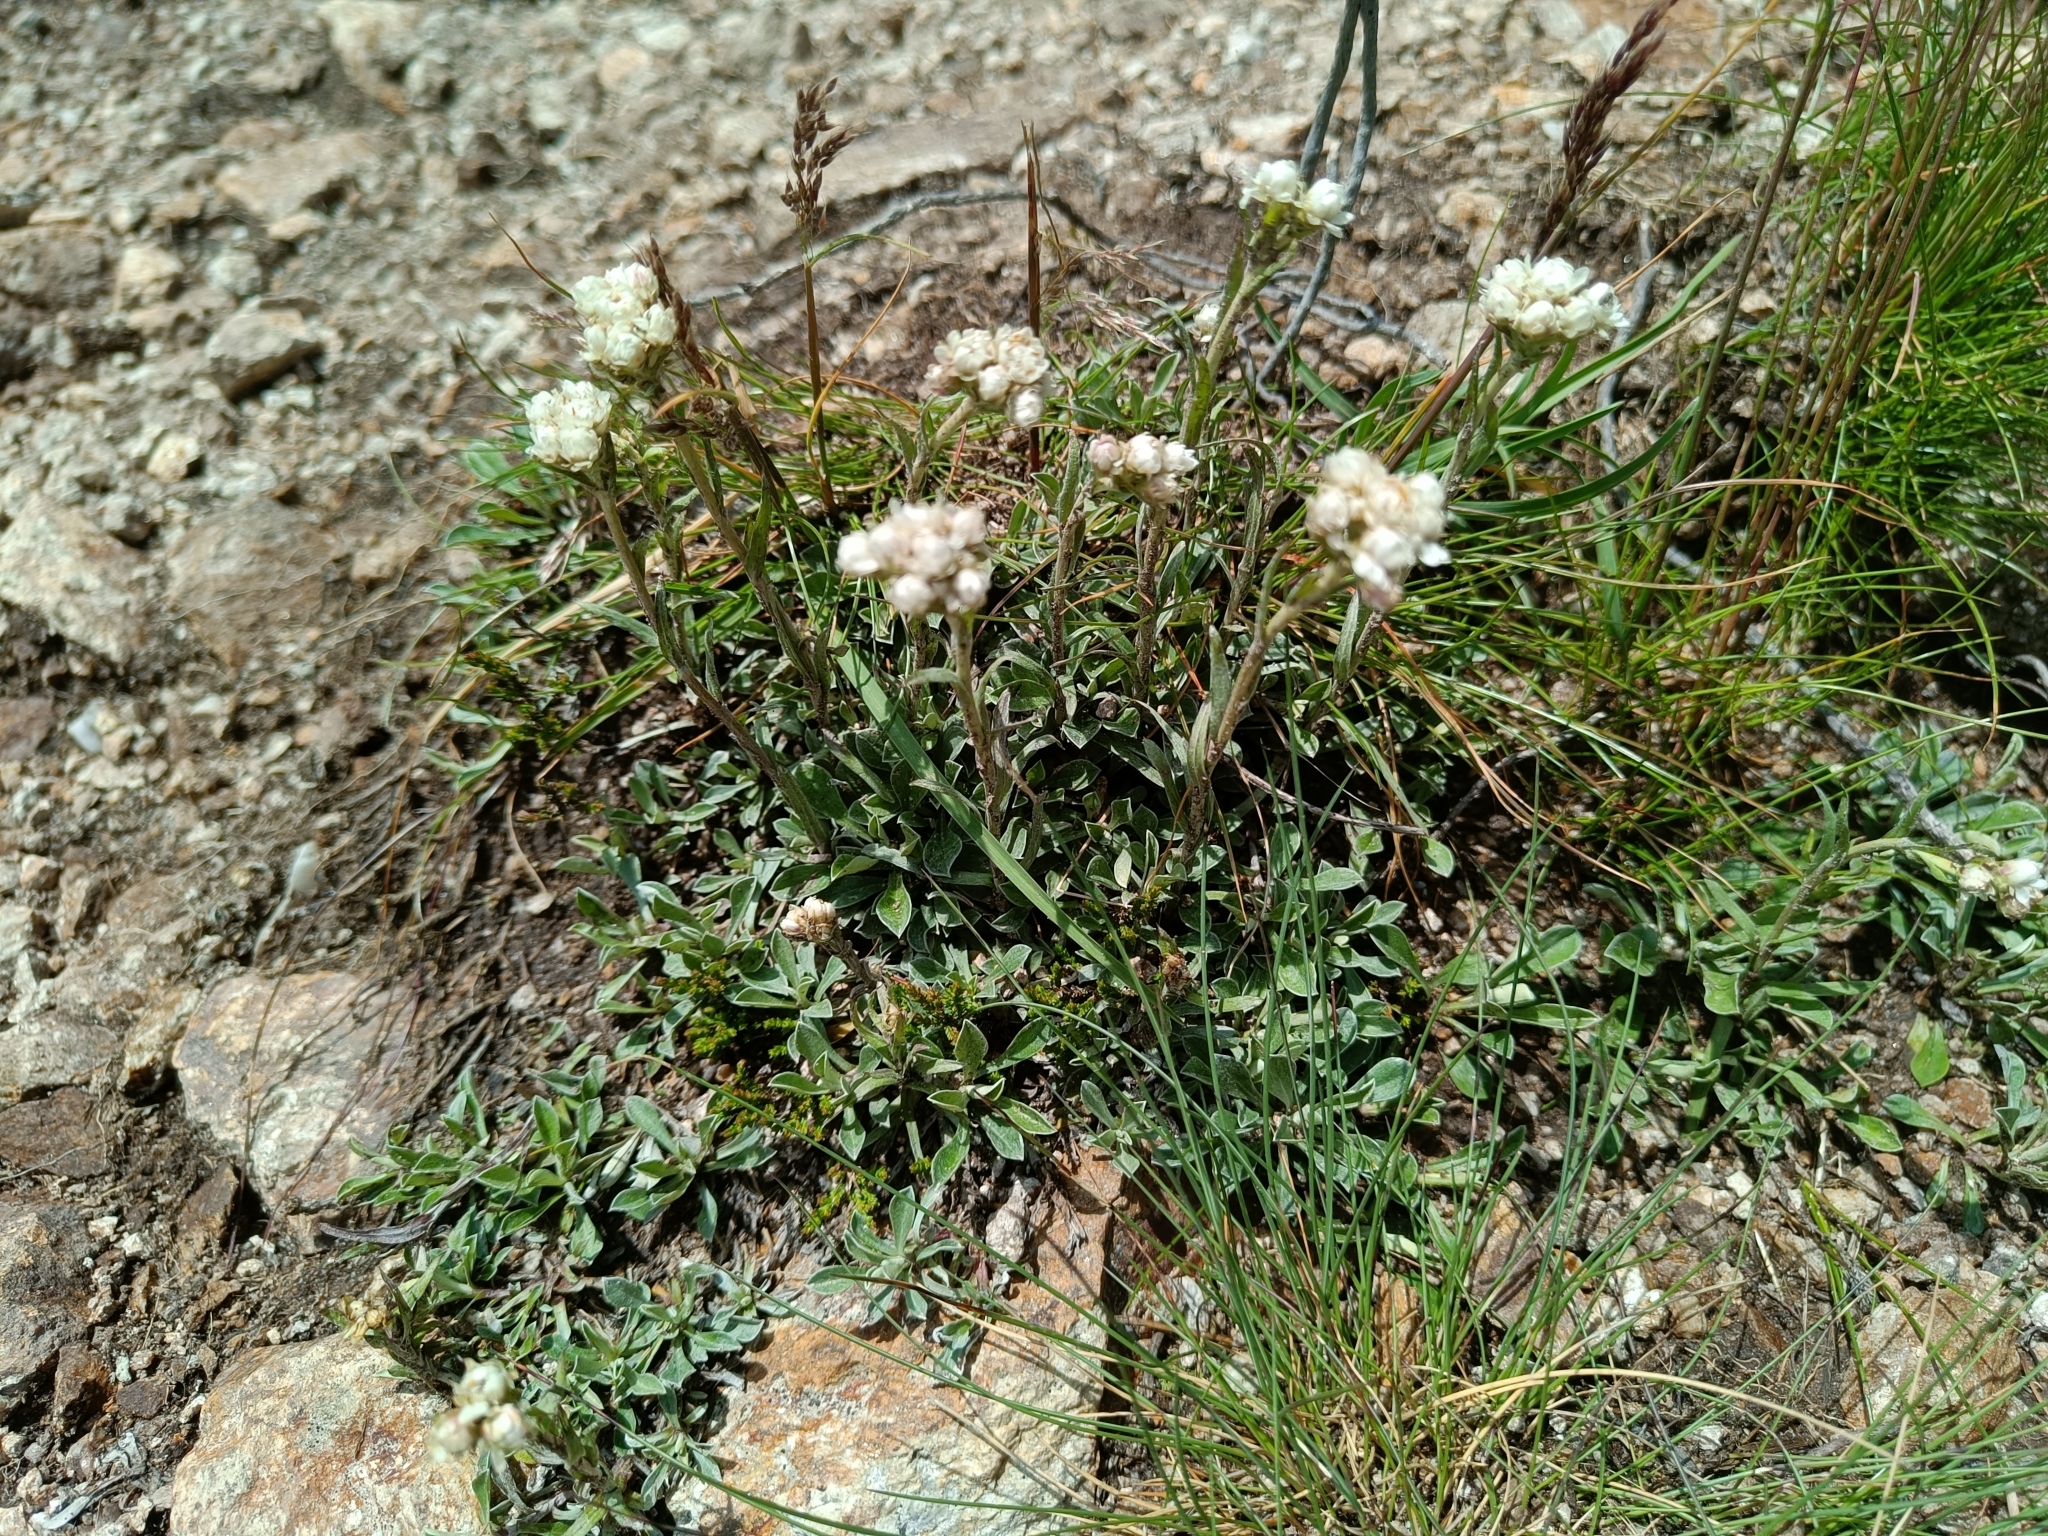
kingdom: Plantae
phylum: Tracheophyta
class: Magnoliopsida
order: Asterales
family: Asteraceae
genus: Antennaria
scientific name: Antennaria dioica
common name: Mountain everlasting
